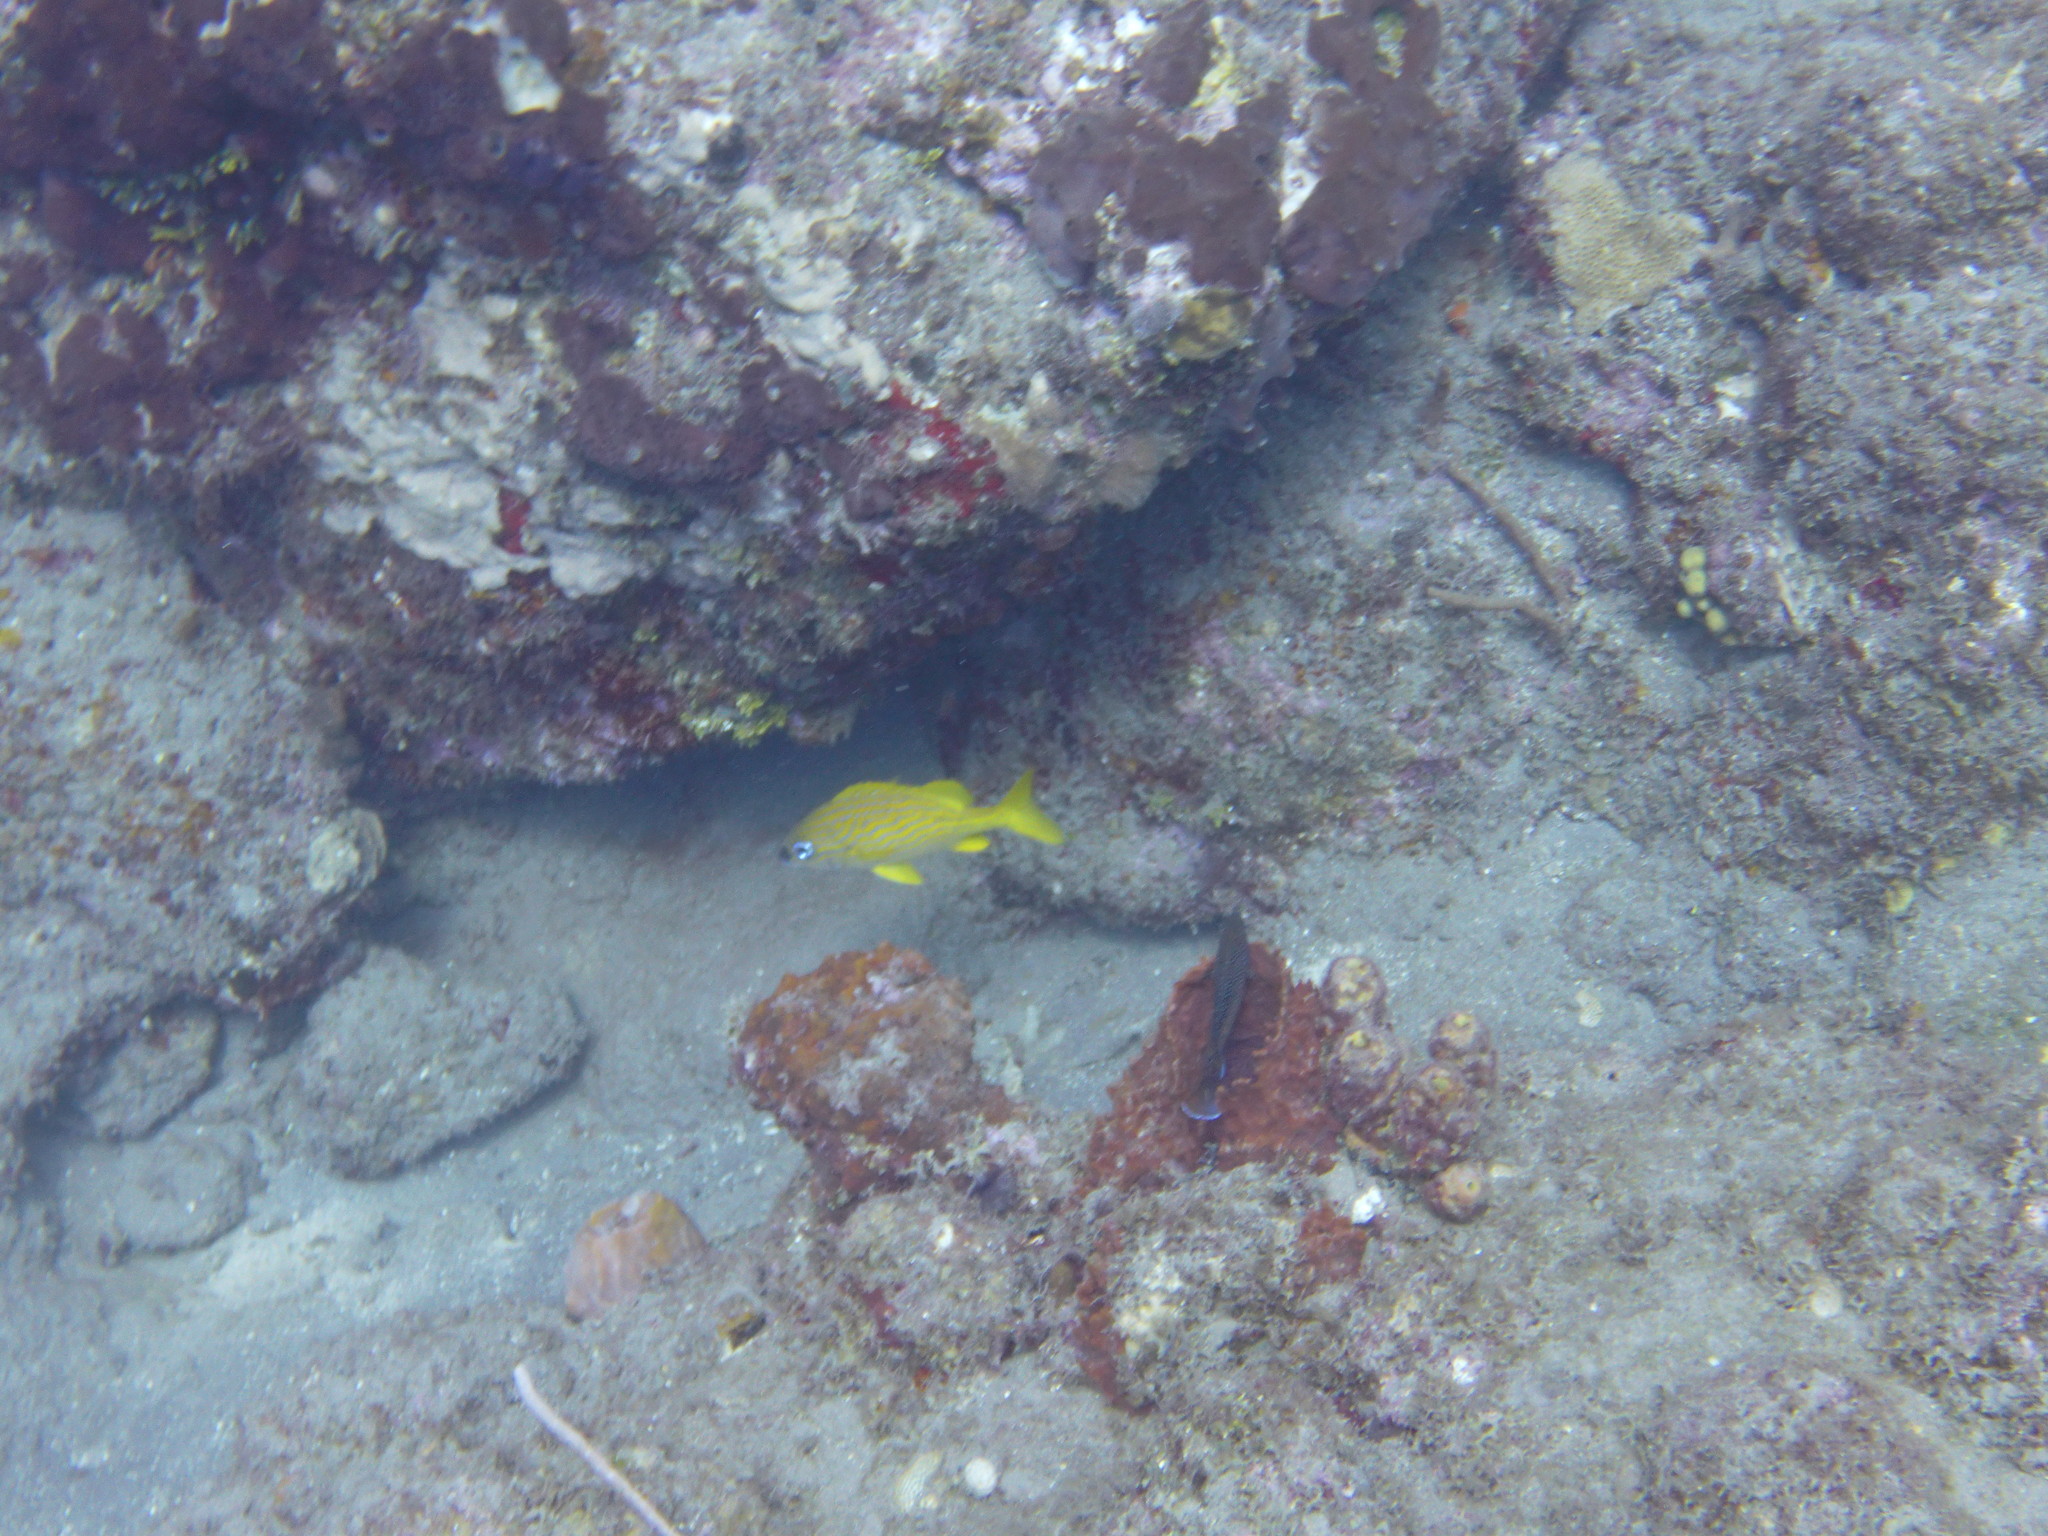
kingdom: Animalia
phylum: Chordata
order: Perciformes
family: Haemulidae
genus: Haemulon
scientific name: Haemulon flavolineatum
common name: French grunt
